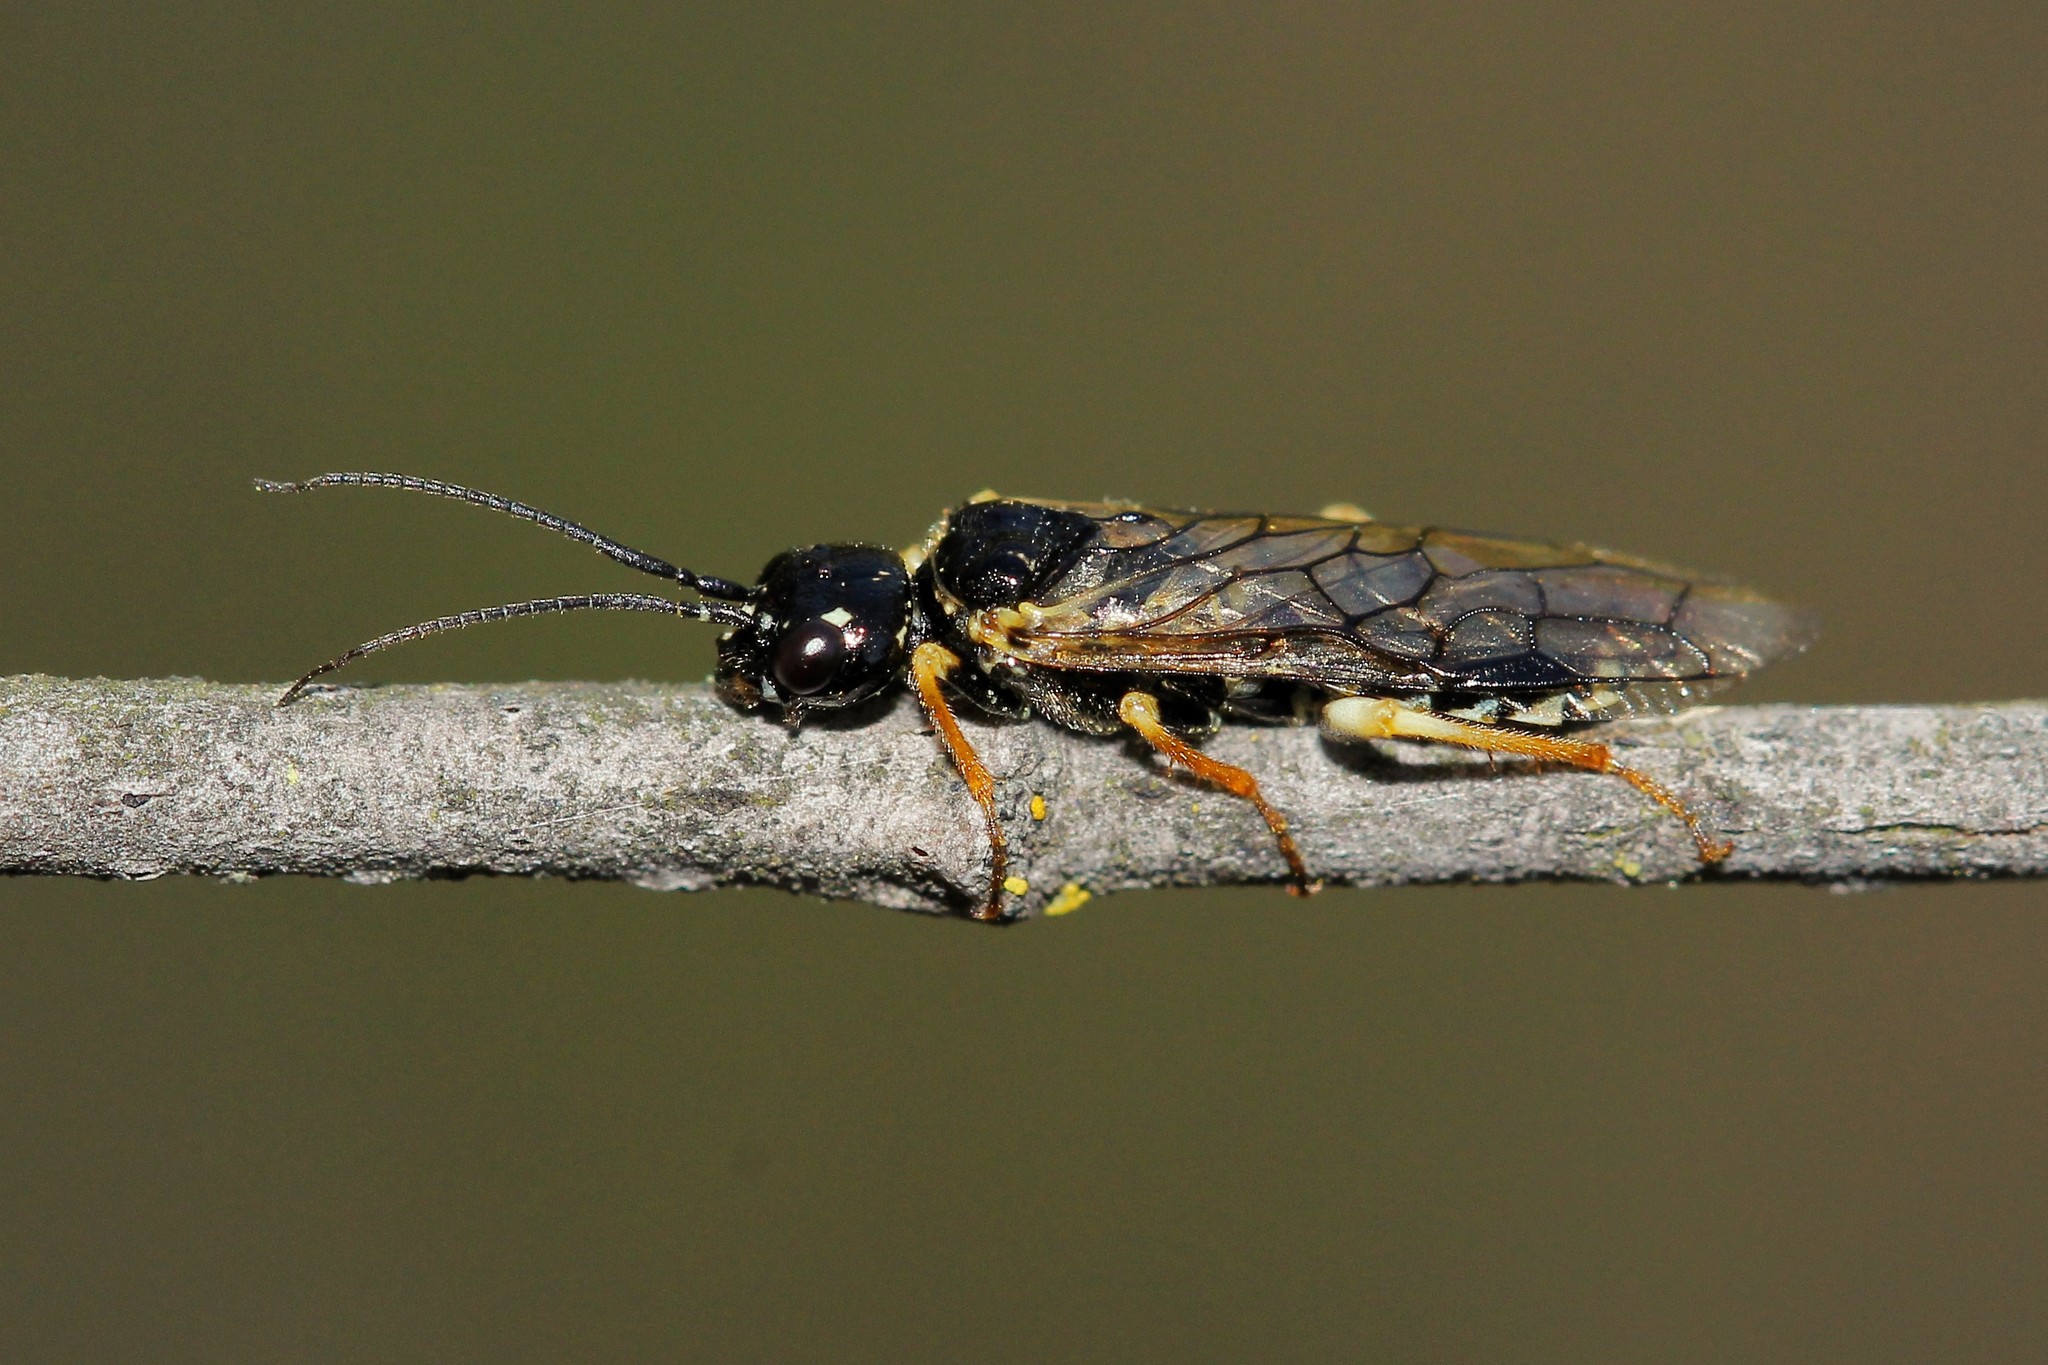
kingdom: Animalia
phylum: Arthropoda
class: Insecta
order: Hymenoptera
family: Pamphiliidae
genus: Neurotoma
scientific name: Neurotoma nemoralis
